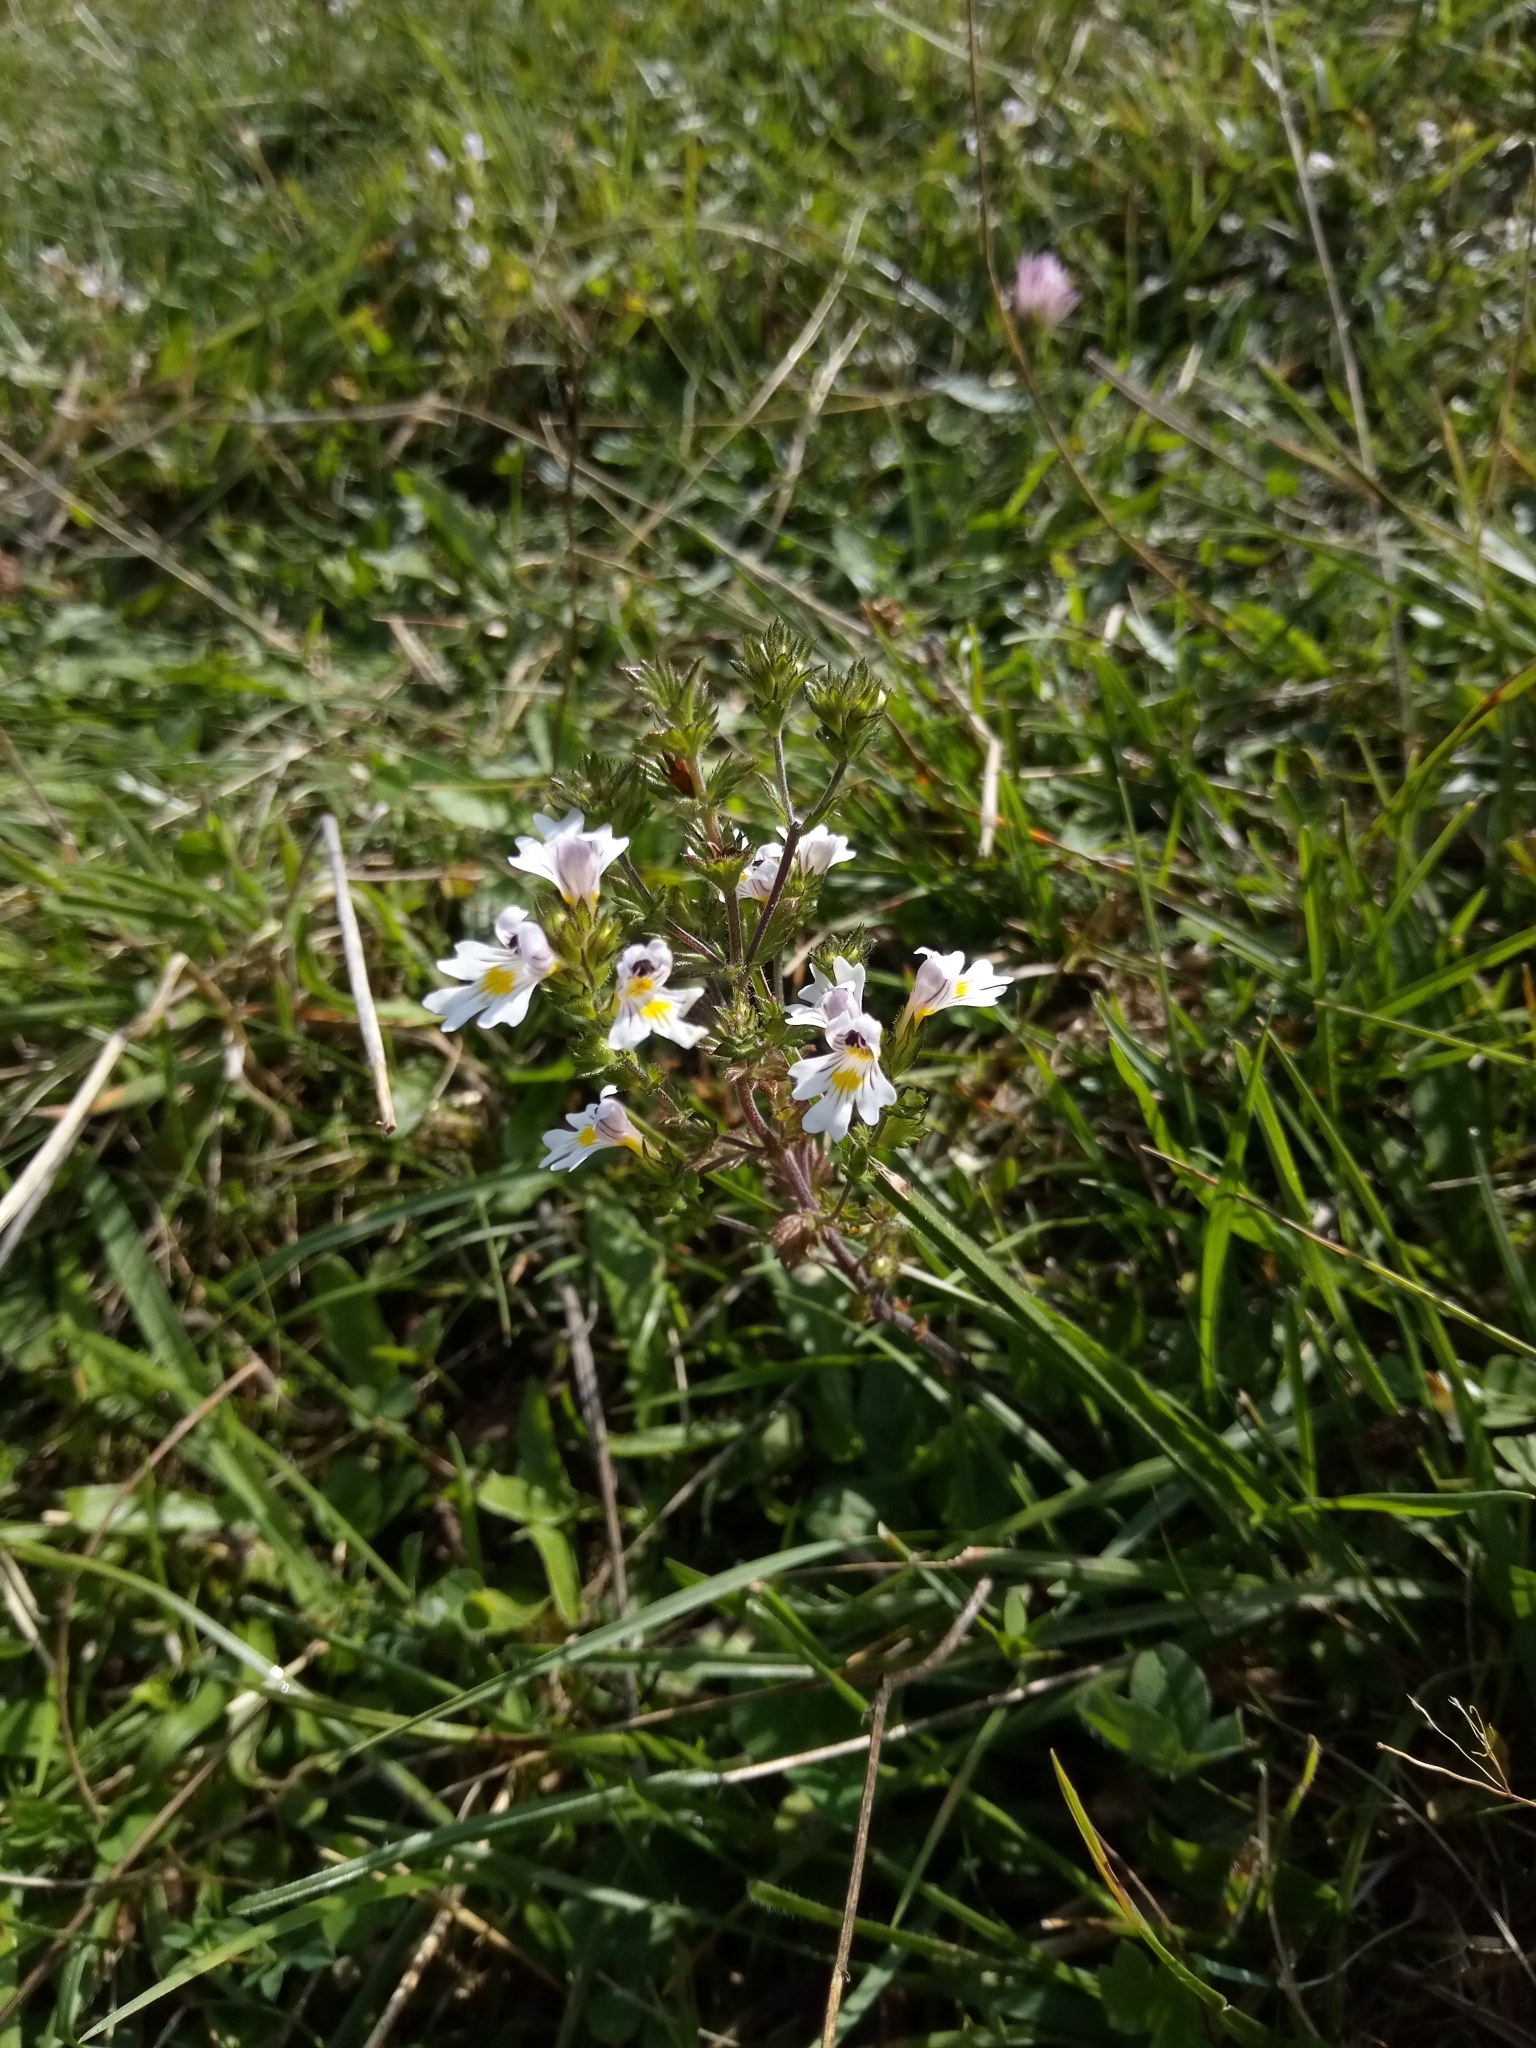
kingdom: Plantae
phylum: Tracheophyta
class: Magnoliopsida
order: Lamiales
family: Orobanchaceae
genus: Euphrasia
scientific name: Euphrasia officinalis
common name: Eyebright
